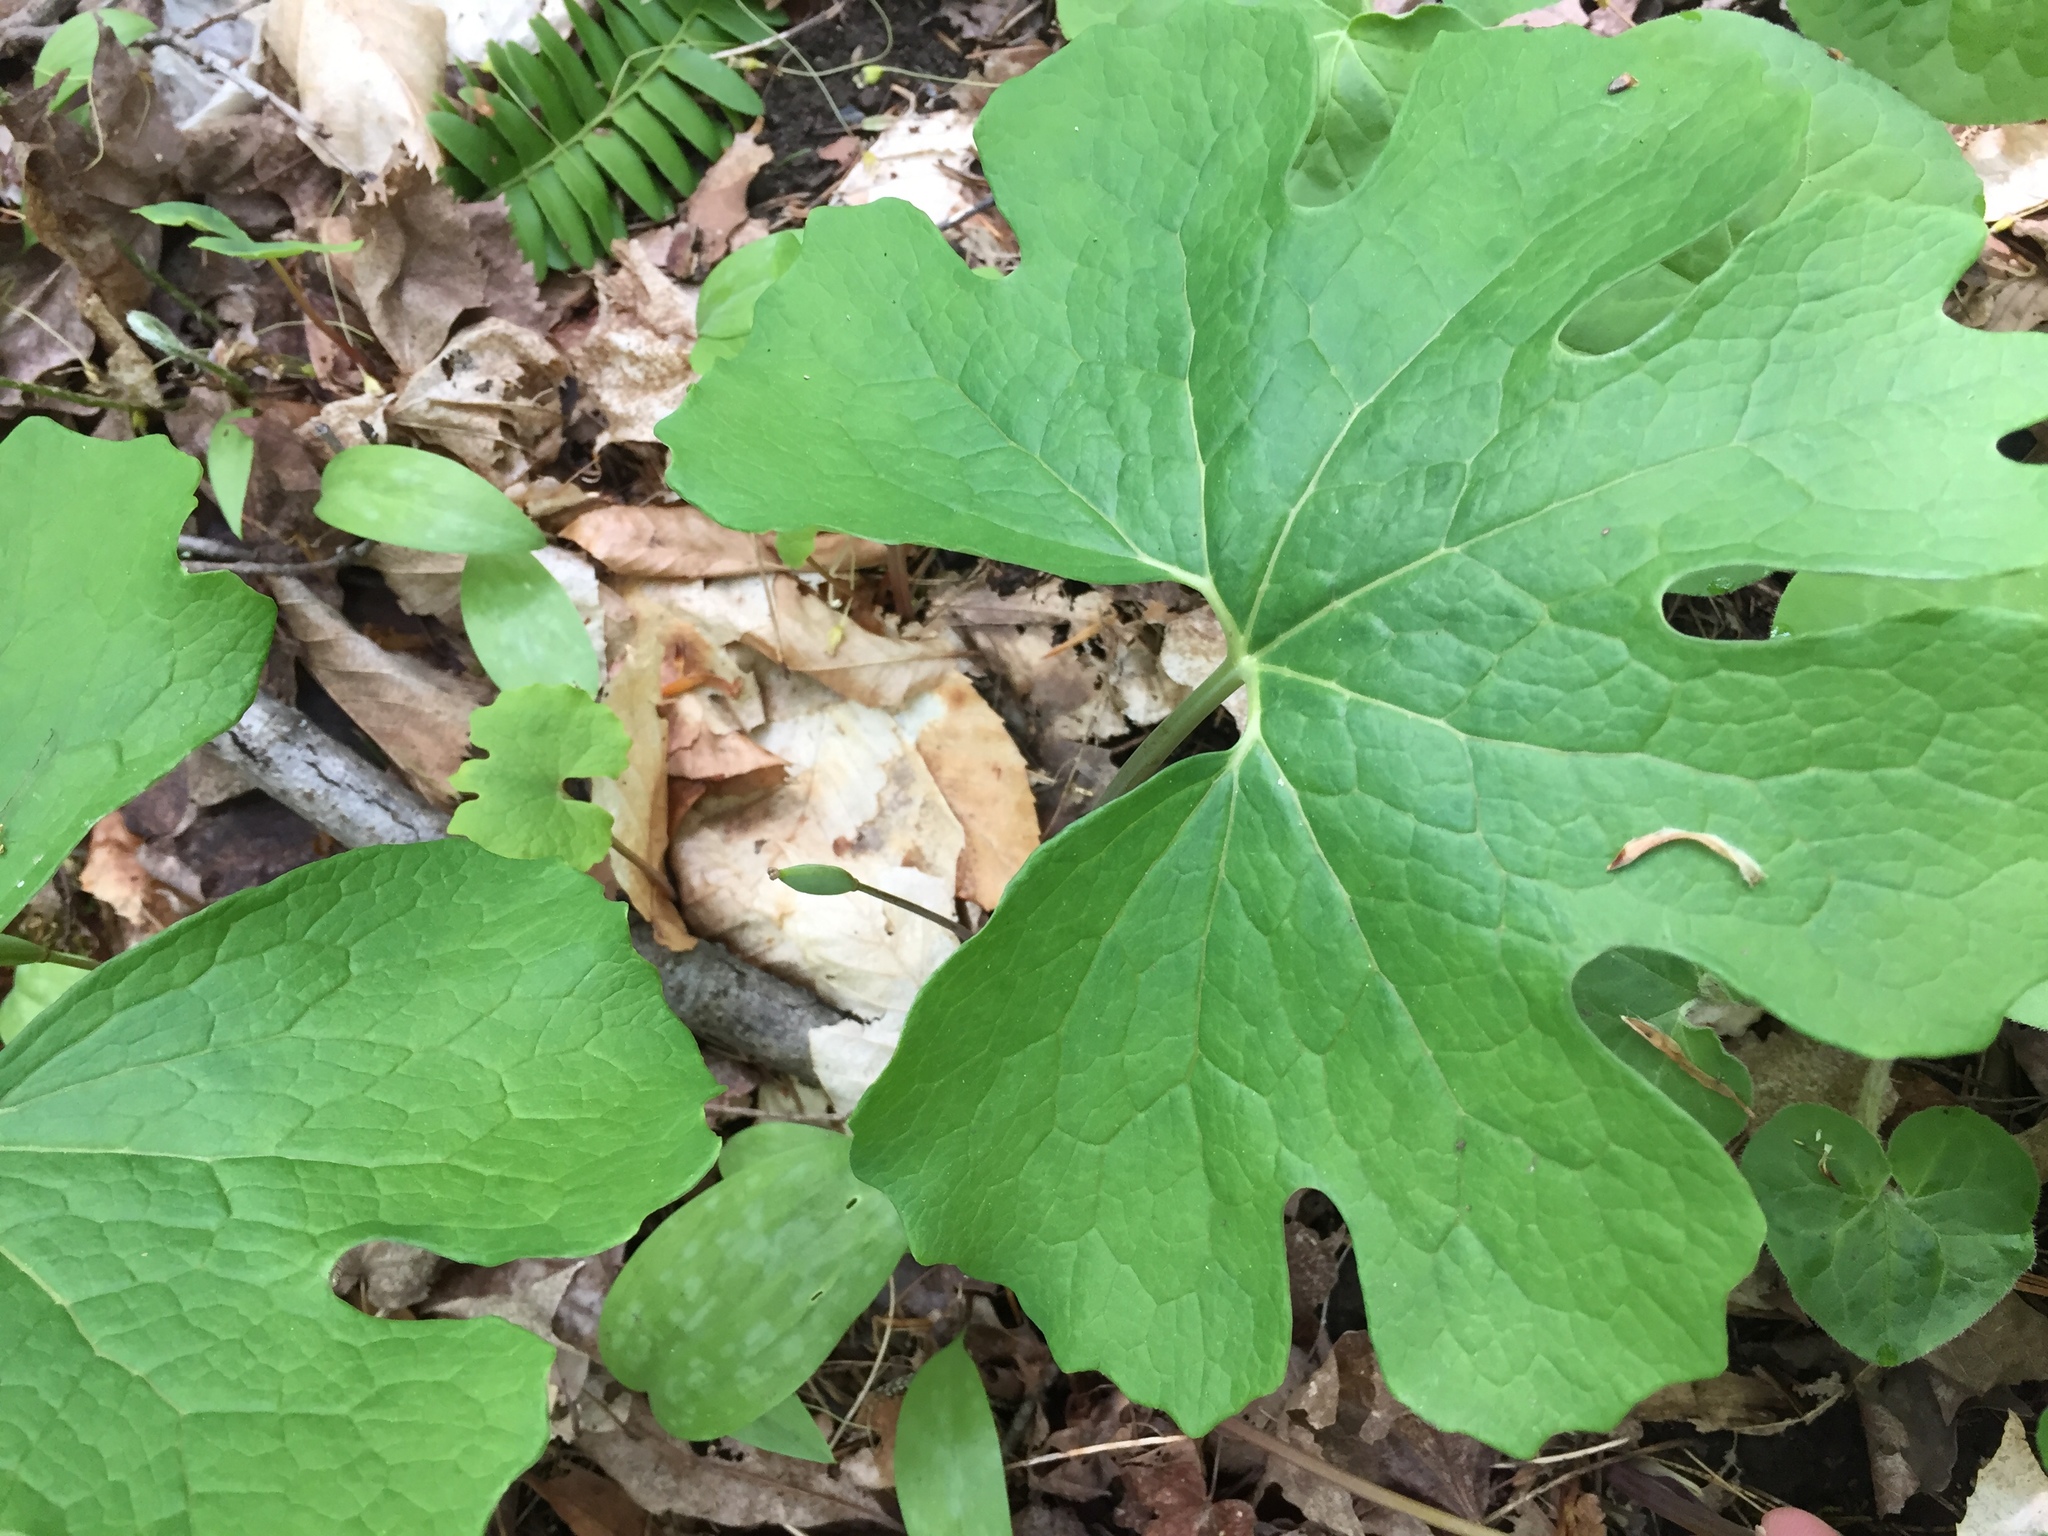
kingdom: Plantae
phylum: Tracheophyta
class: Magnoliopsida
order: Ranunculales
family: Papaveraceae
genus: Sanguinaria
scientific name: Sanguinaria canadensis
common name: Bloodroot
